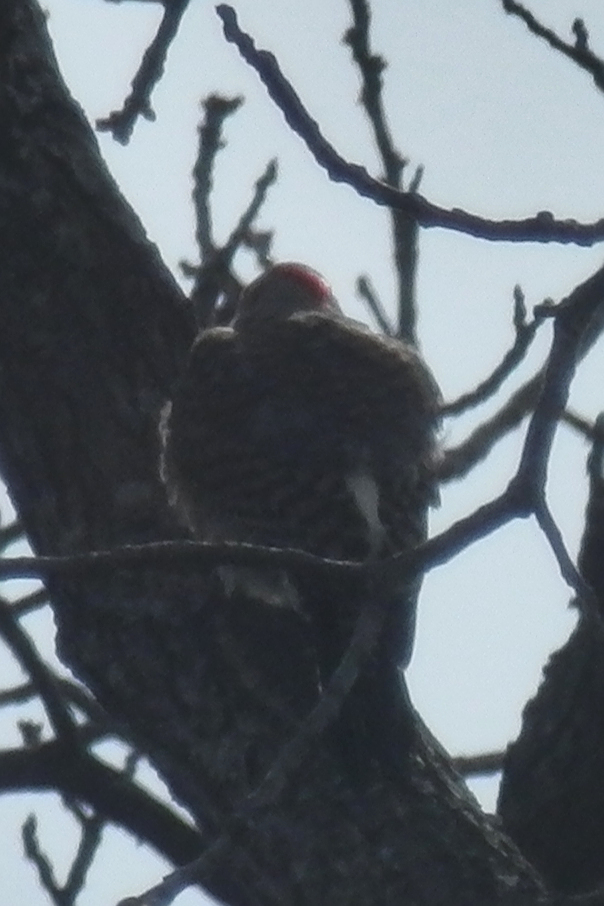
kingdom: Animalia
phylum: Chordata
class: Aves
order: Piciformes
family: Picidae
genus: Colaptes
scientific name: Colaptes auratus
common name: Northern flicker
